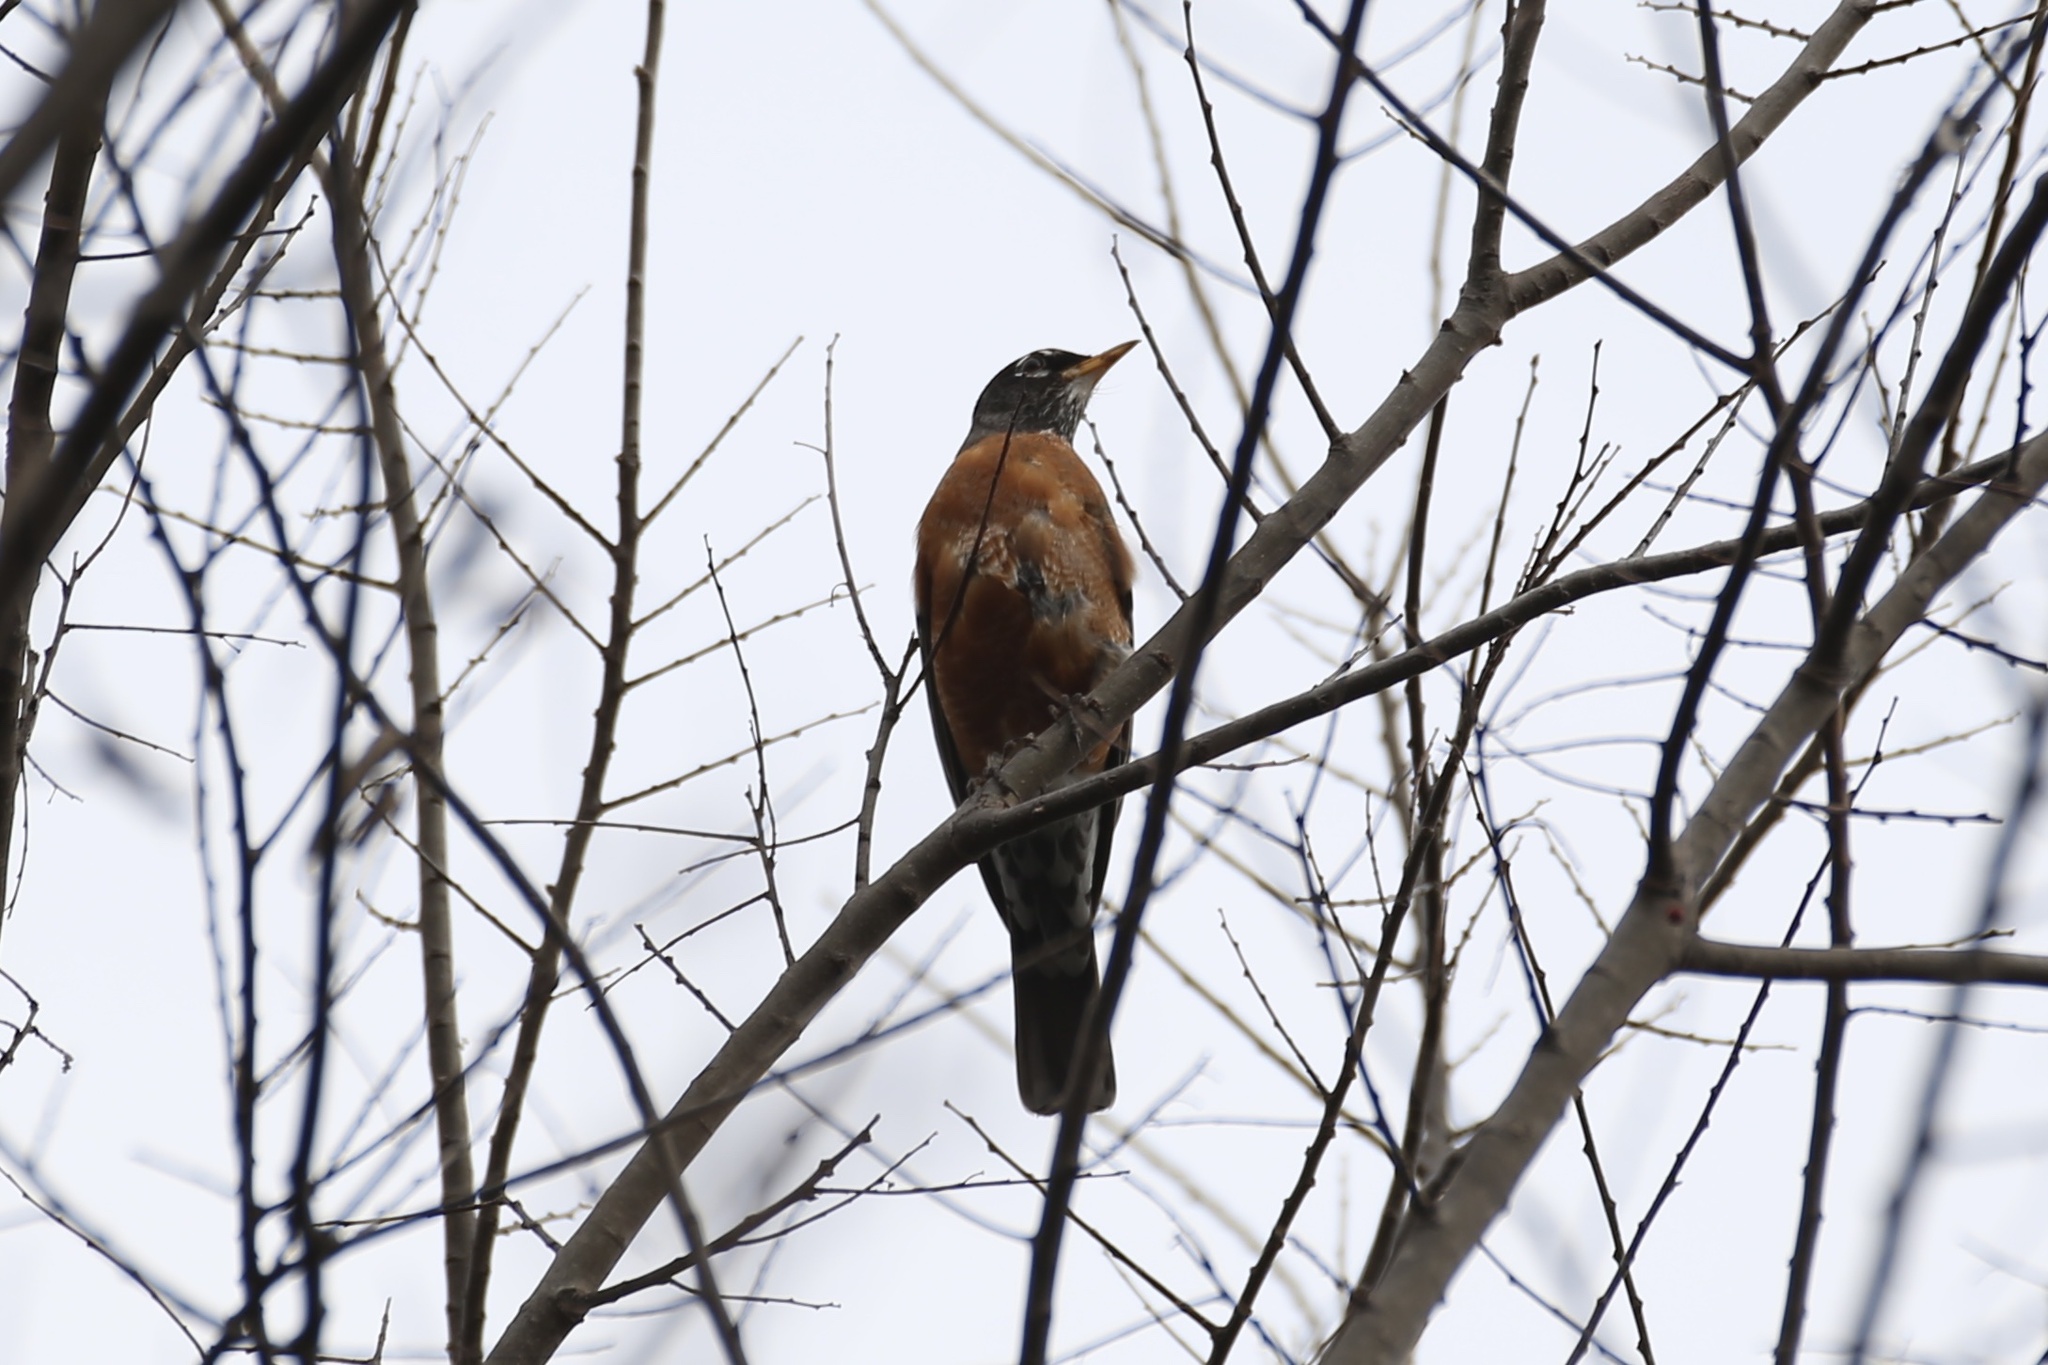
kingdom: Animalia
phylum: Chordata
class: Aves
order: Passeriformes
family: Turdidae
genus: Turdus
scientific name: Turdus migratorius
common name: American robin
